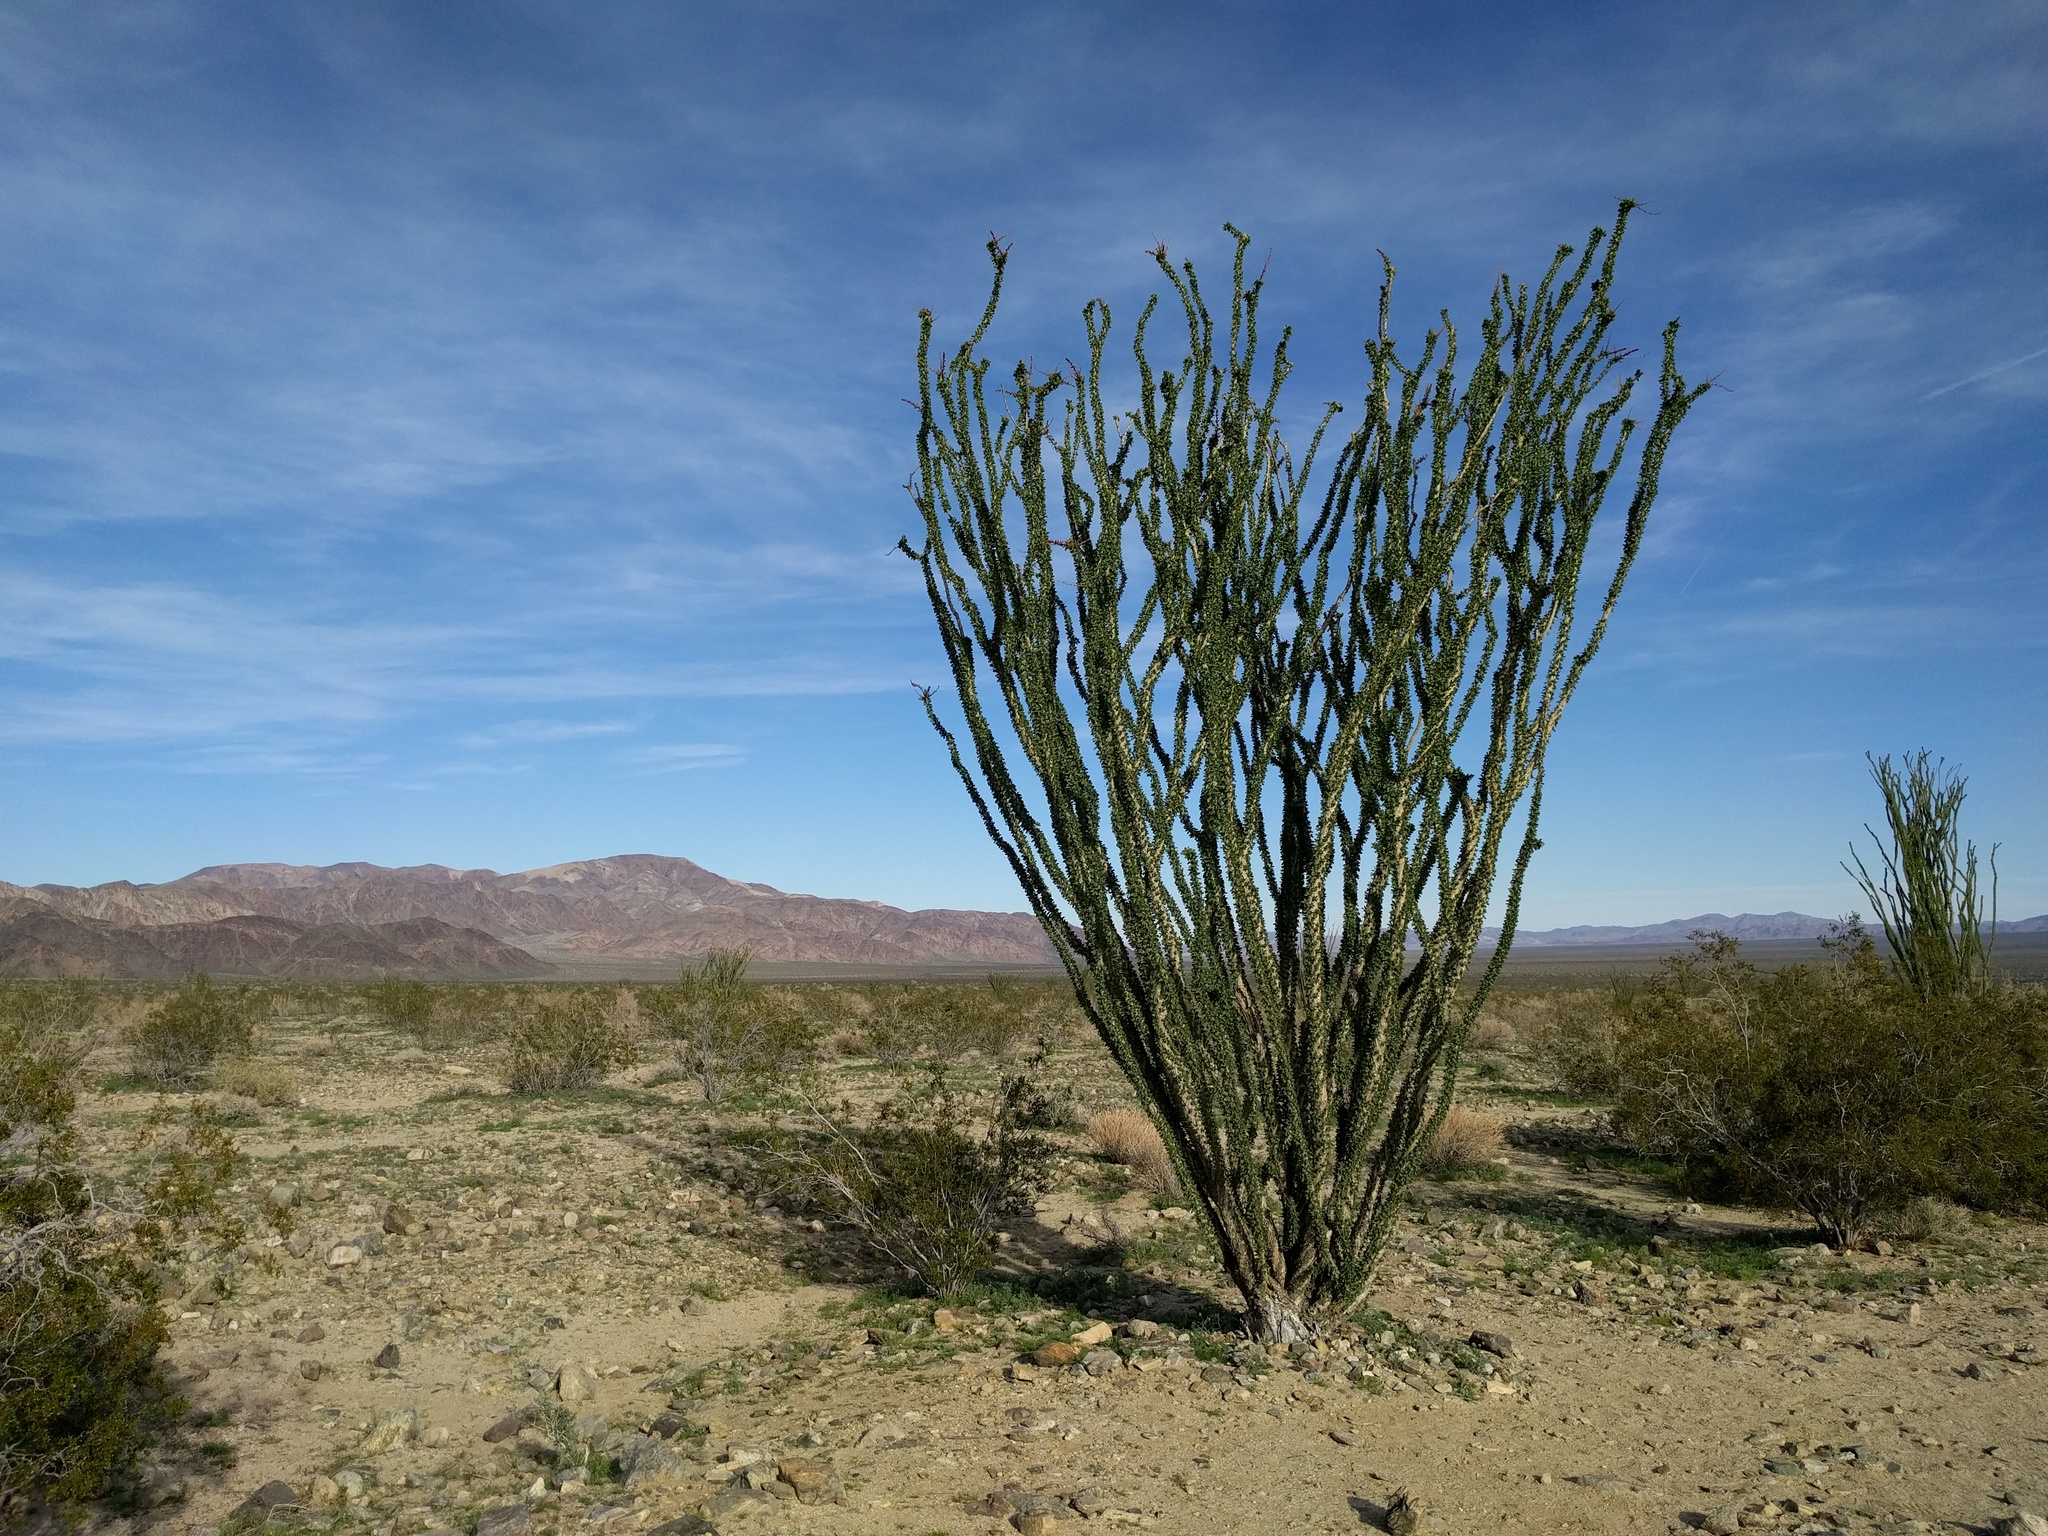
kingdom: Plantae
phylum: Tracheophyta
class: Magnoliopsida
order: Ericales
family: Fouquieriaceae
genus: Fouquieria
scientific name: Fouquieria splendens
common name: Vine-cactus
